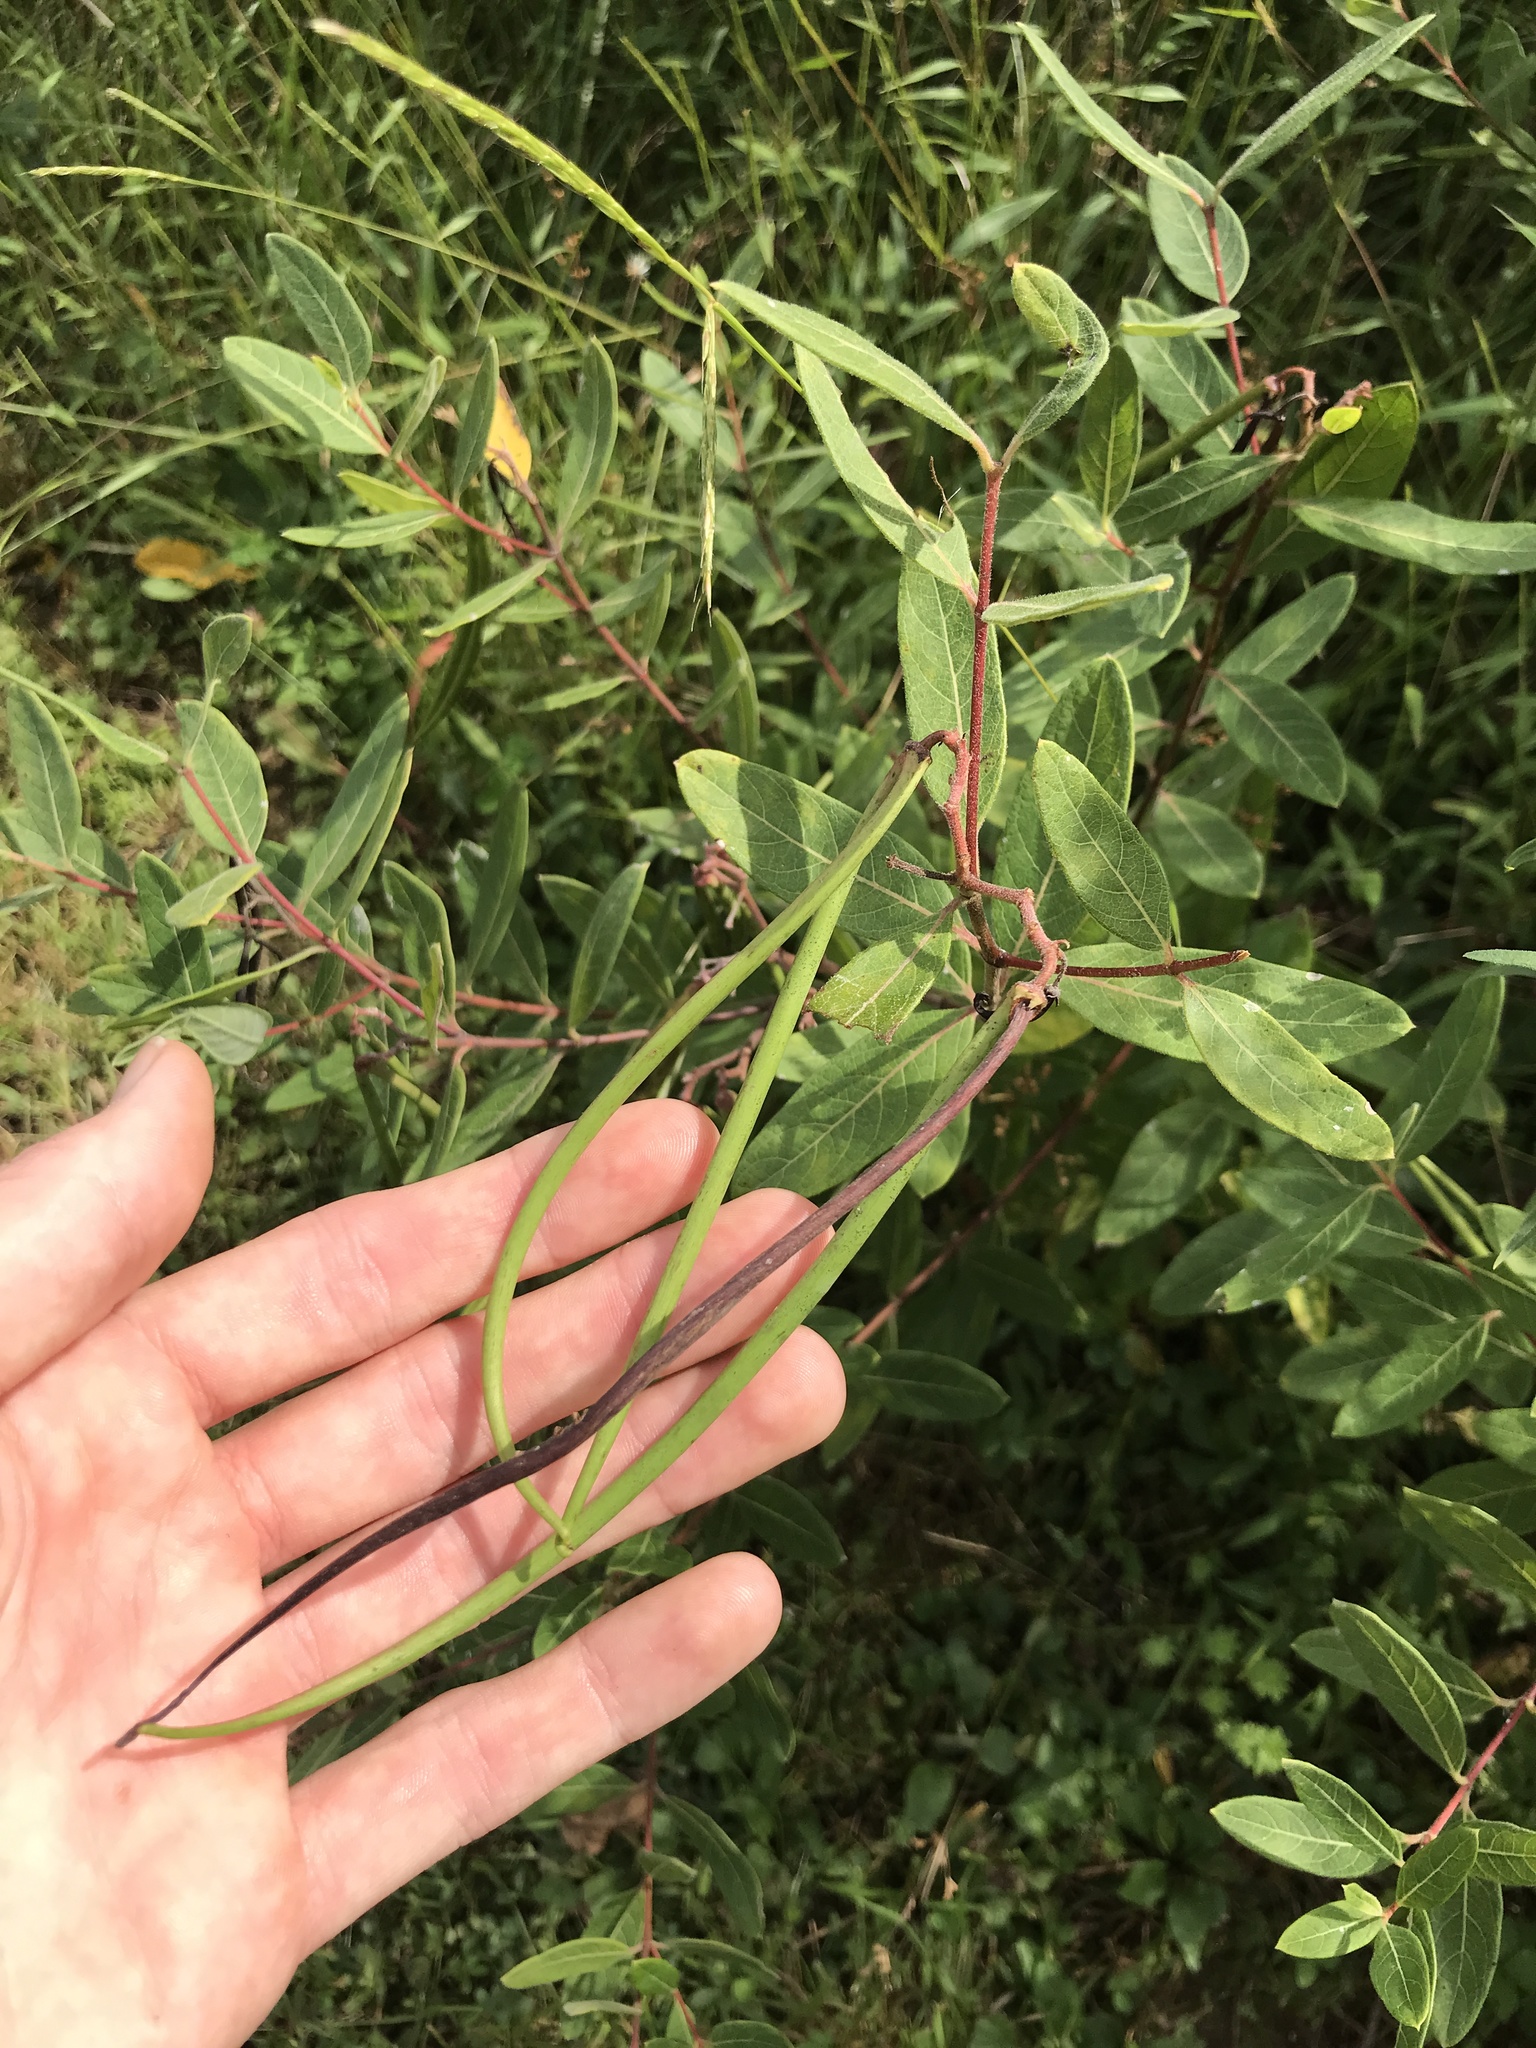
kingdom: Plantae
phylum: Tracheophyta
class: Magnoliopsida
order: Gentianales
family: Apocynaceae
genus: Apocynum
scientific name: Apocynum cannabinum
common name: Hemp dogbane
